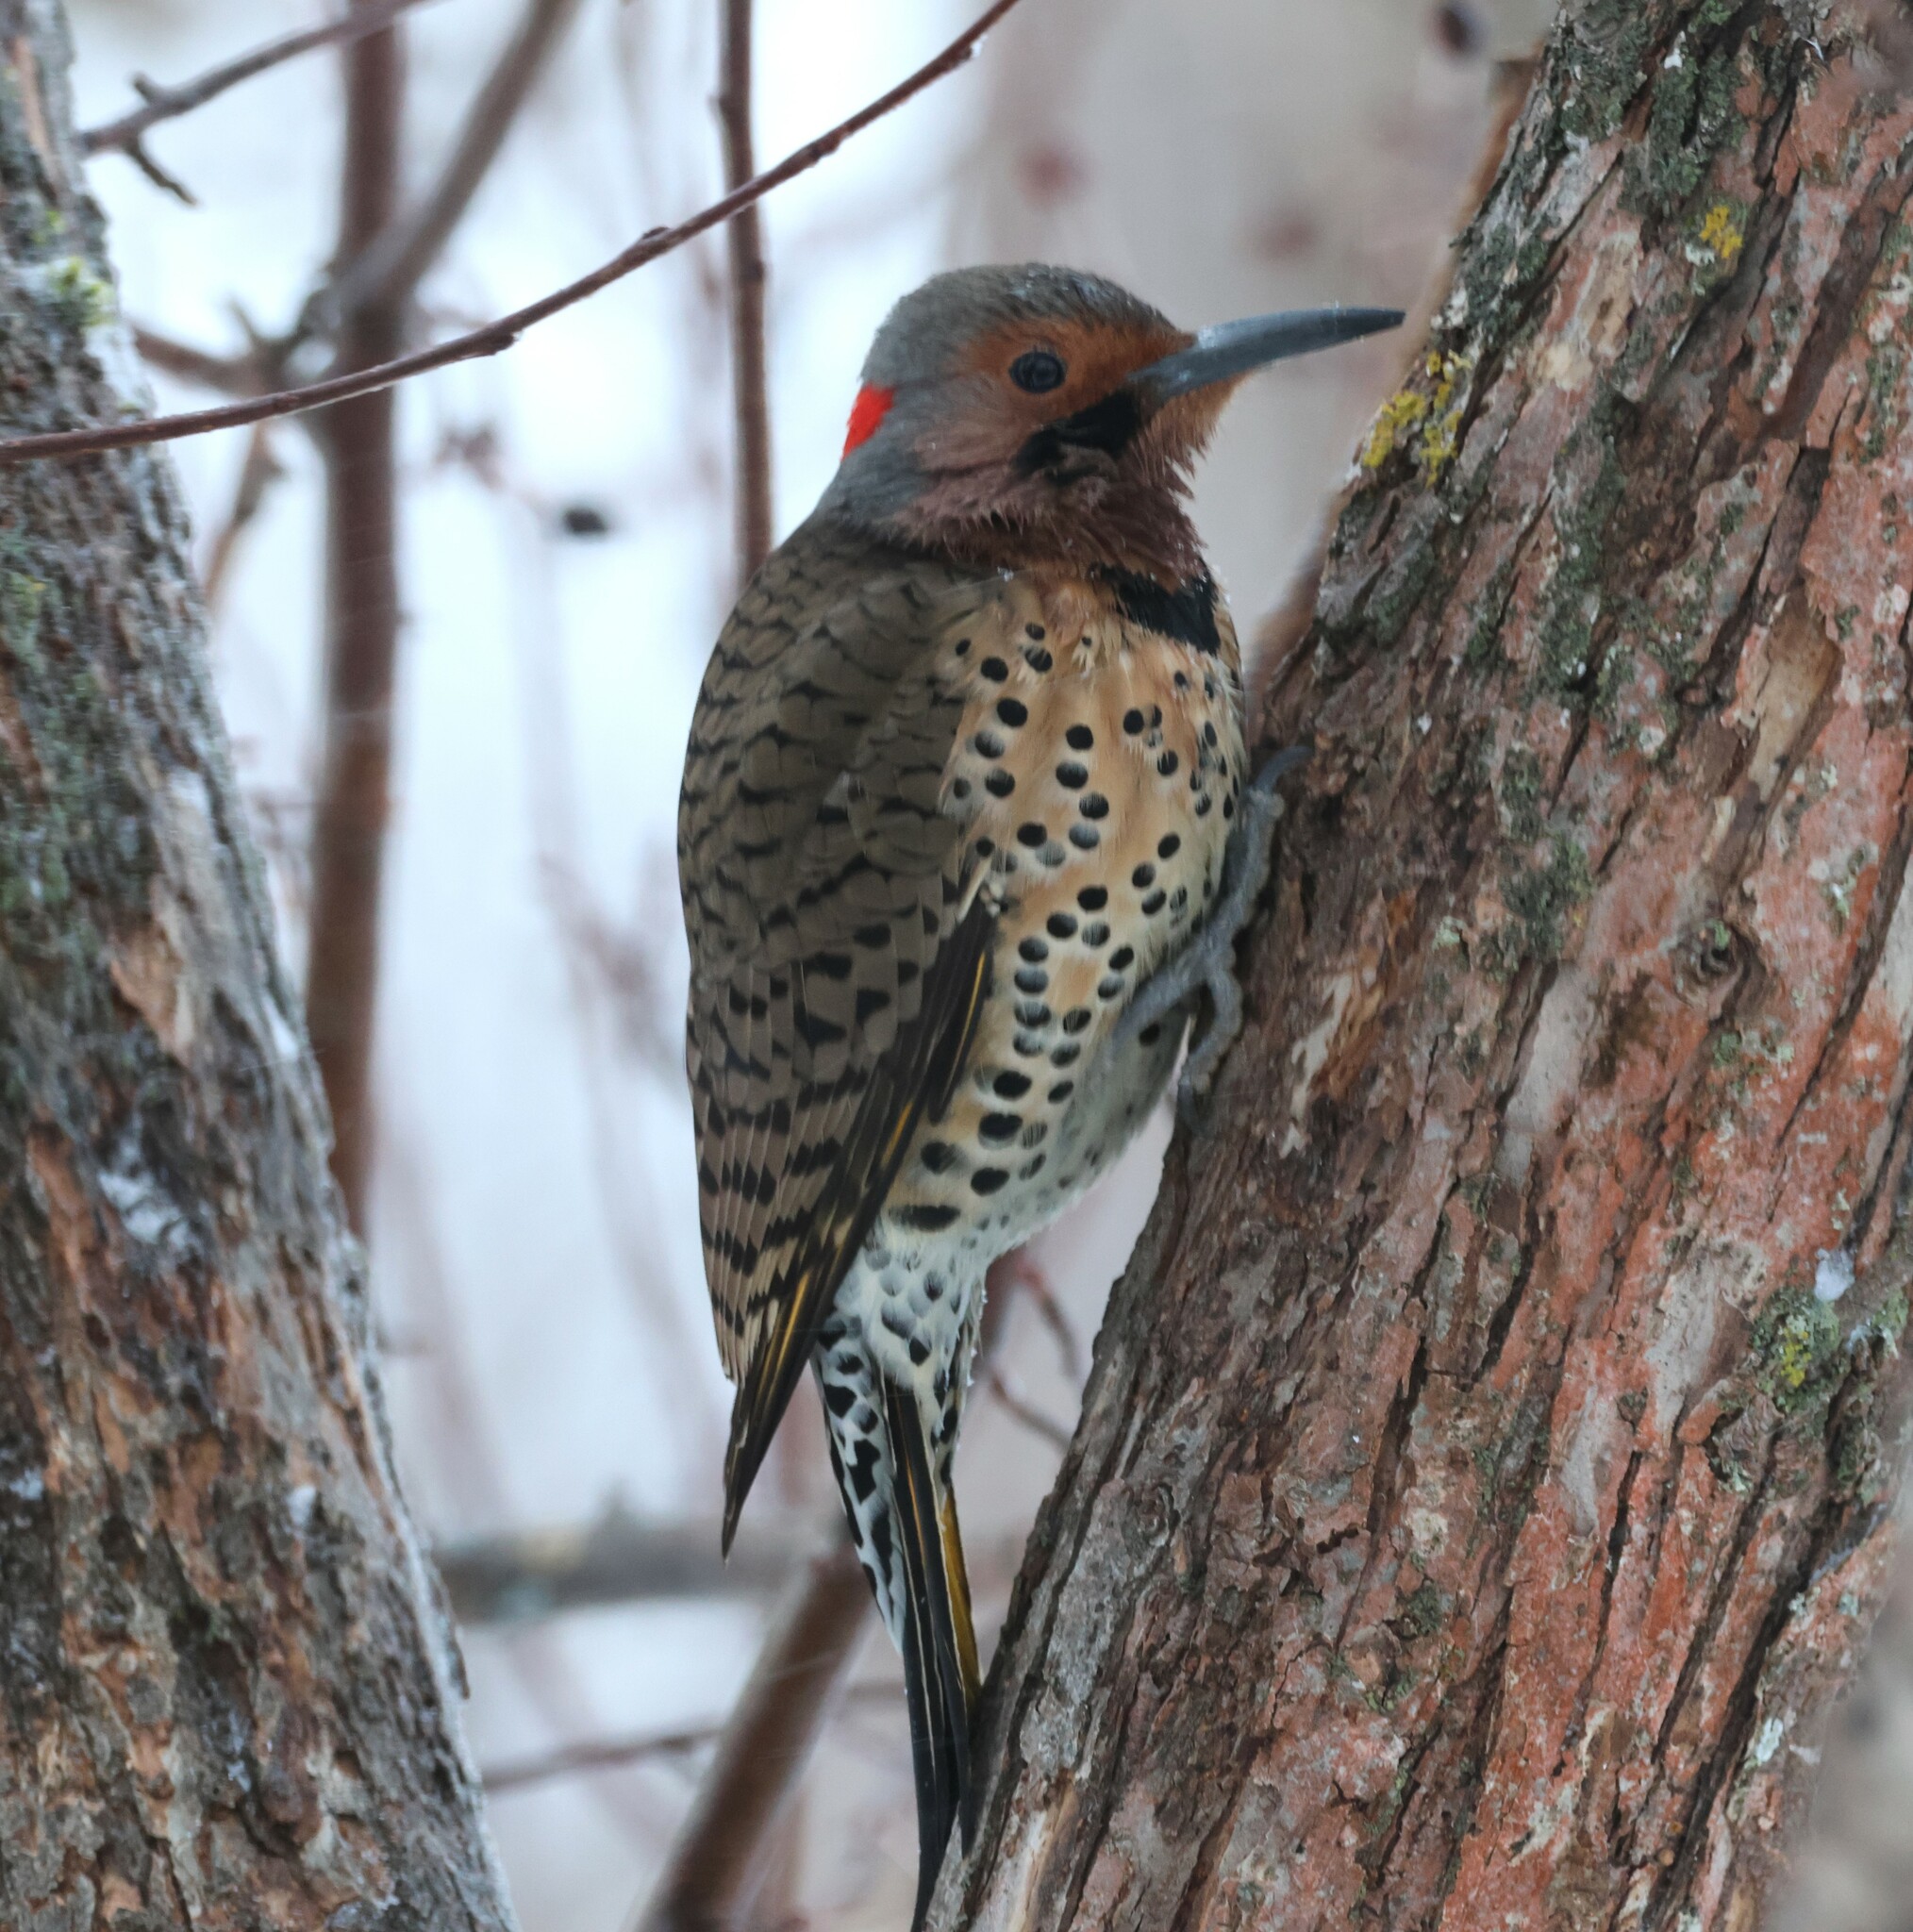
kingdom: Animalia
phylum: Chordata
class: Aves
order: Piciformes
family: Picidae
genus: Colaptes
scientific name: Colaptes auratus
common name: Northern flicker
